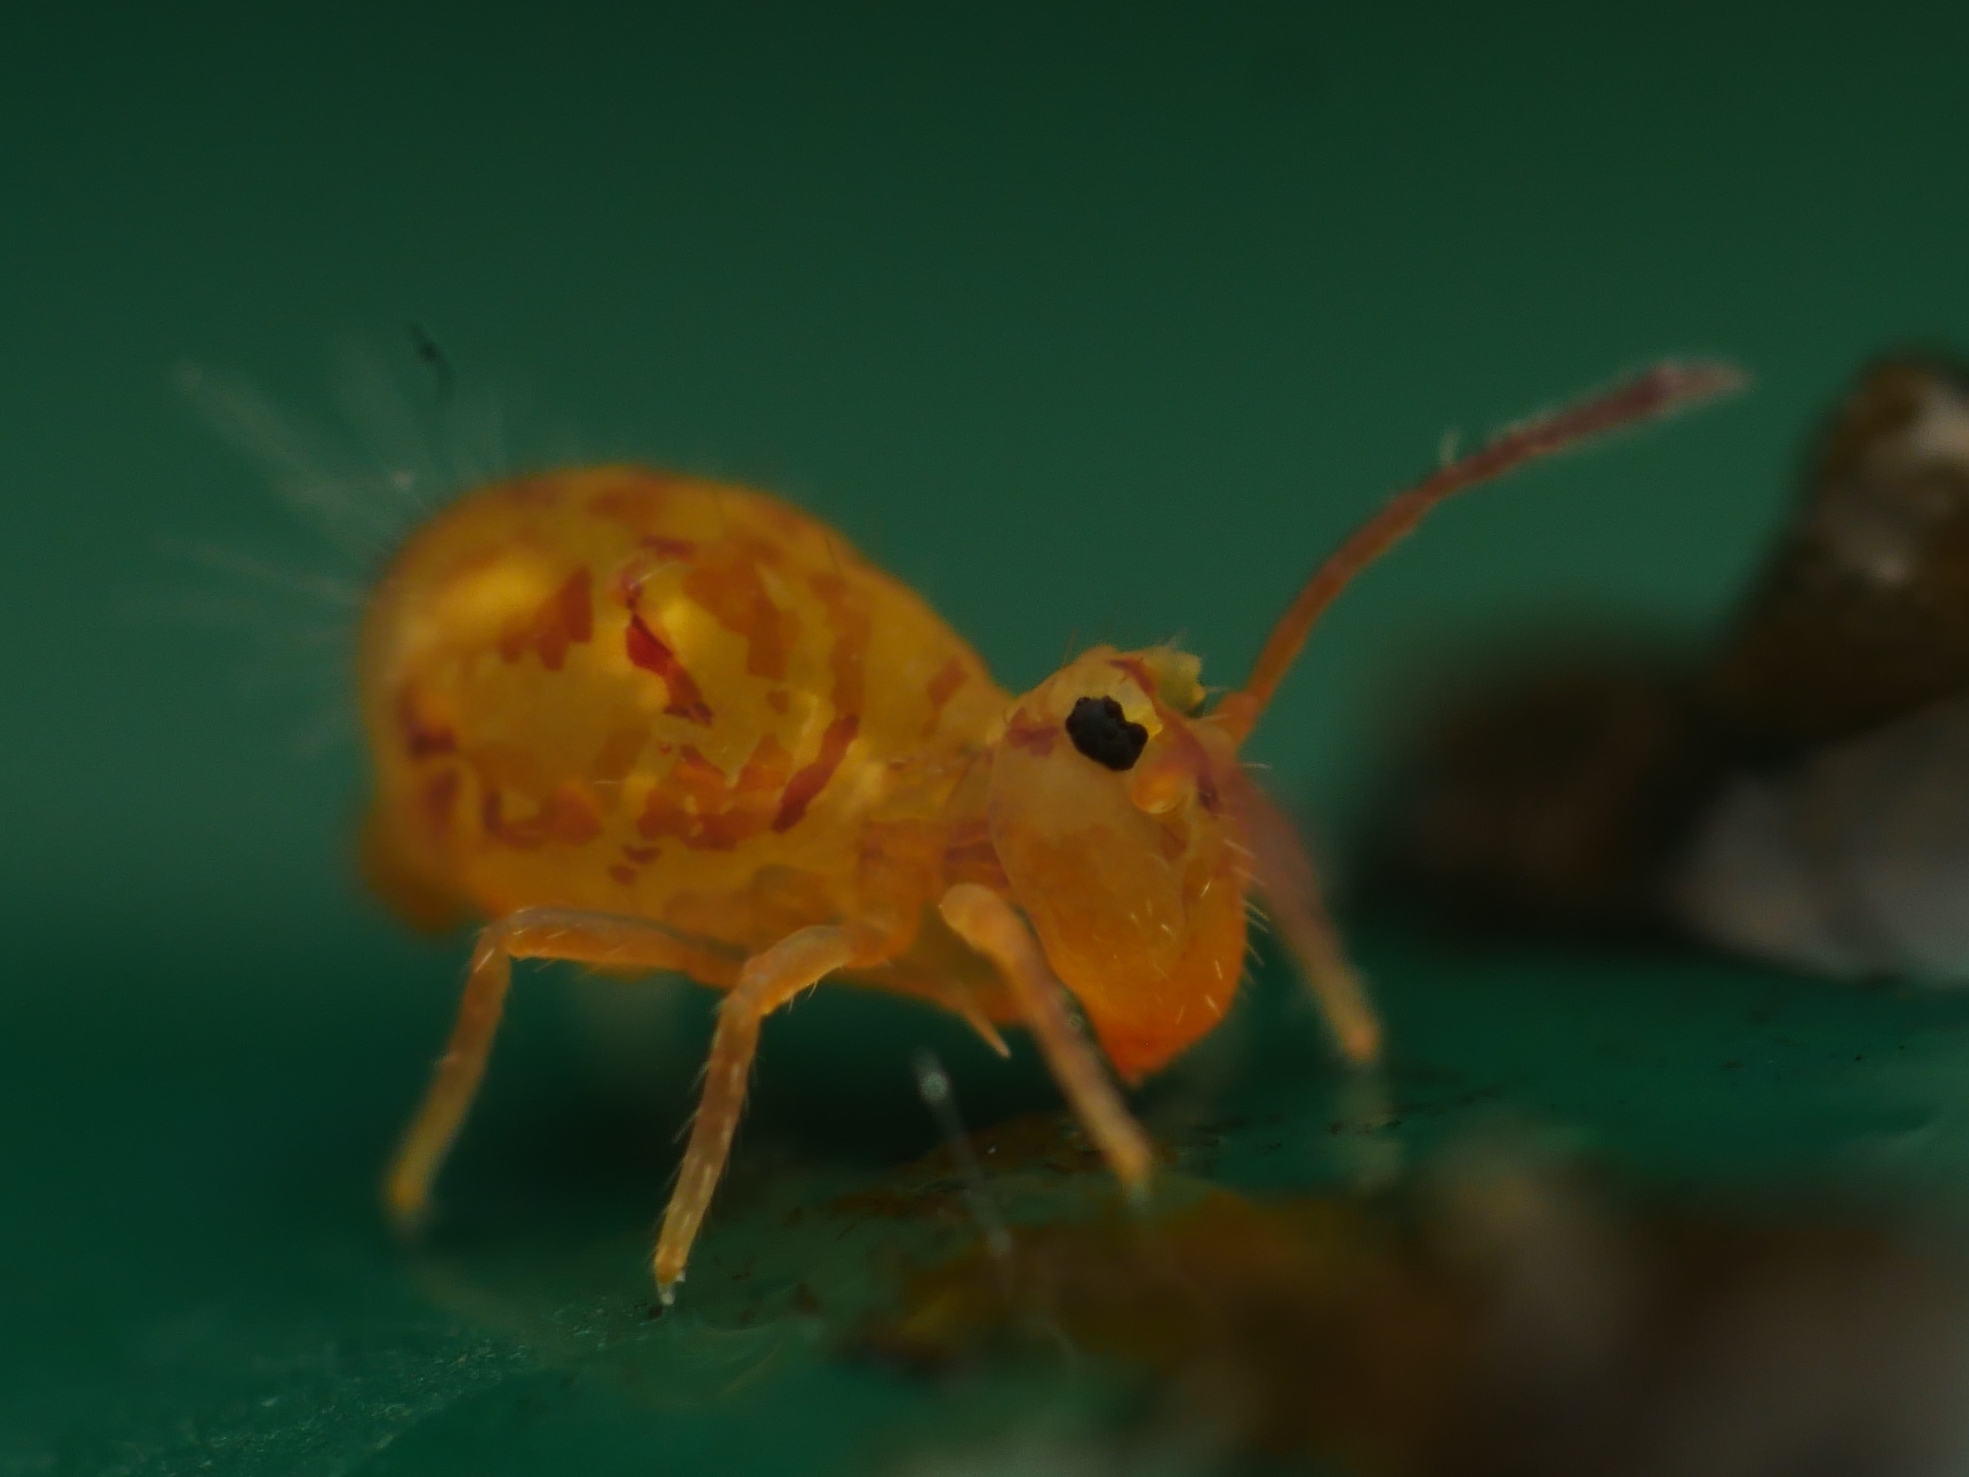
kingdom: Animalia
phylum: Arthropoda
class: Collembola
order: Symphypleona
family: Dicyrtomidae
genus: Dicyrtomina
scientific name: Dicyrtomina ornata
